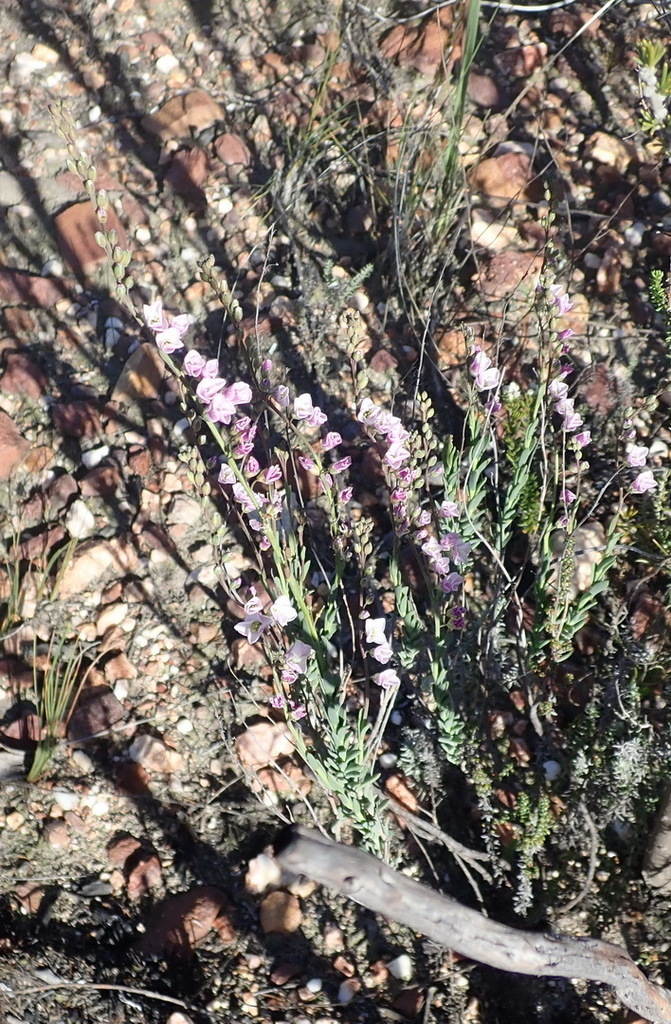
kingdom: Plantae
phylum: Tracheophyta
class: Magnoliopsida
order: Brassicales
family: Brassicaceae
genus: Heliophila
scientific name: Heliophila glauca
